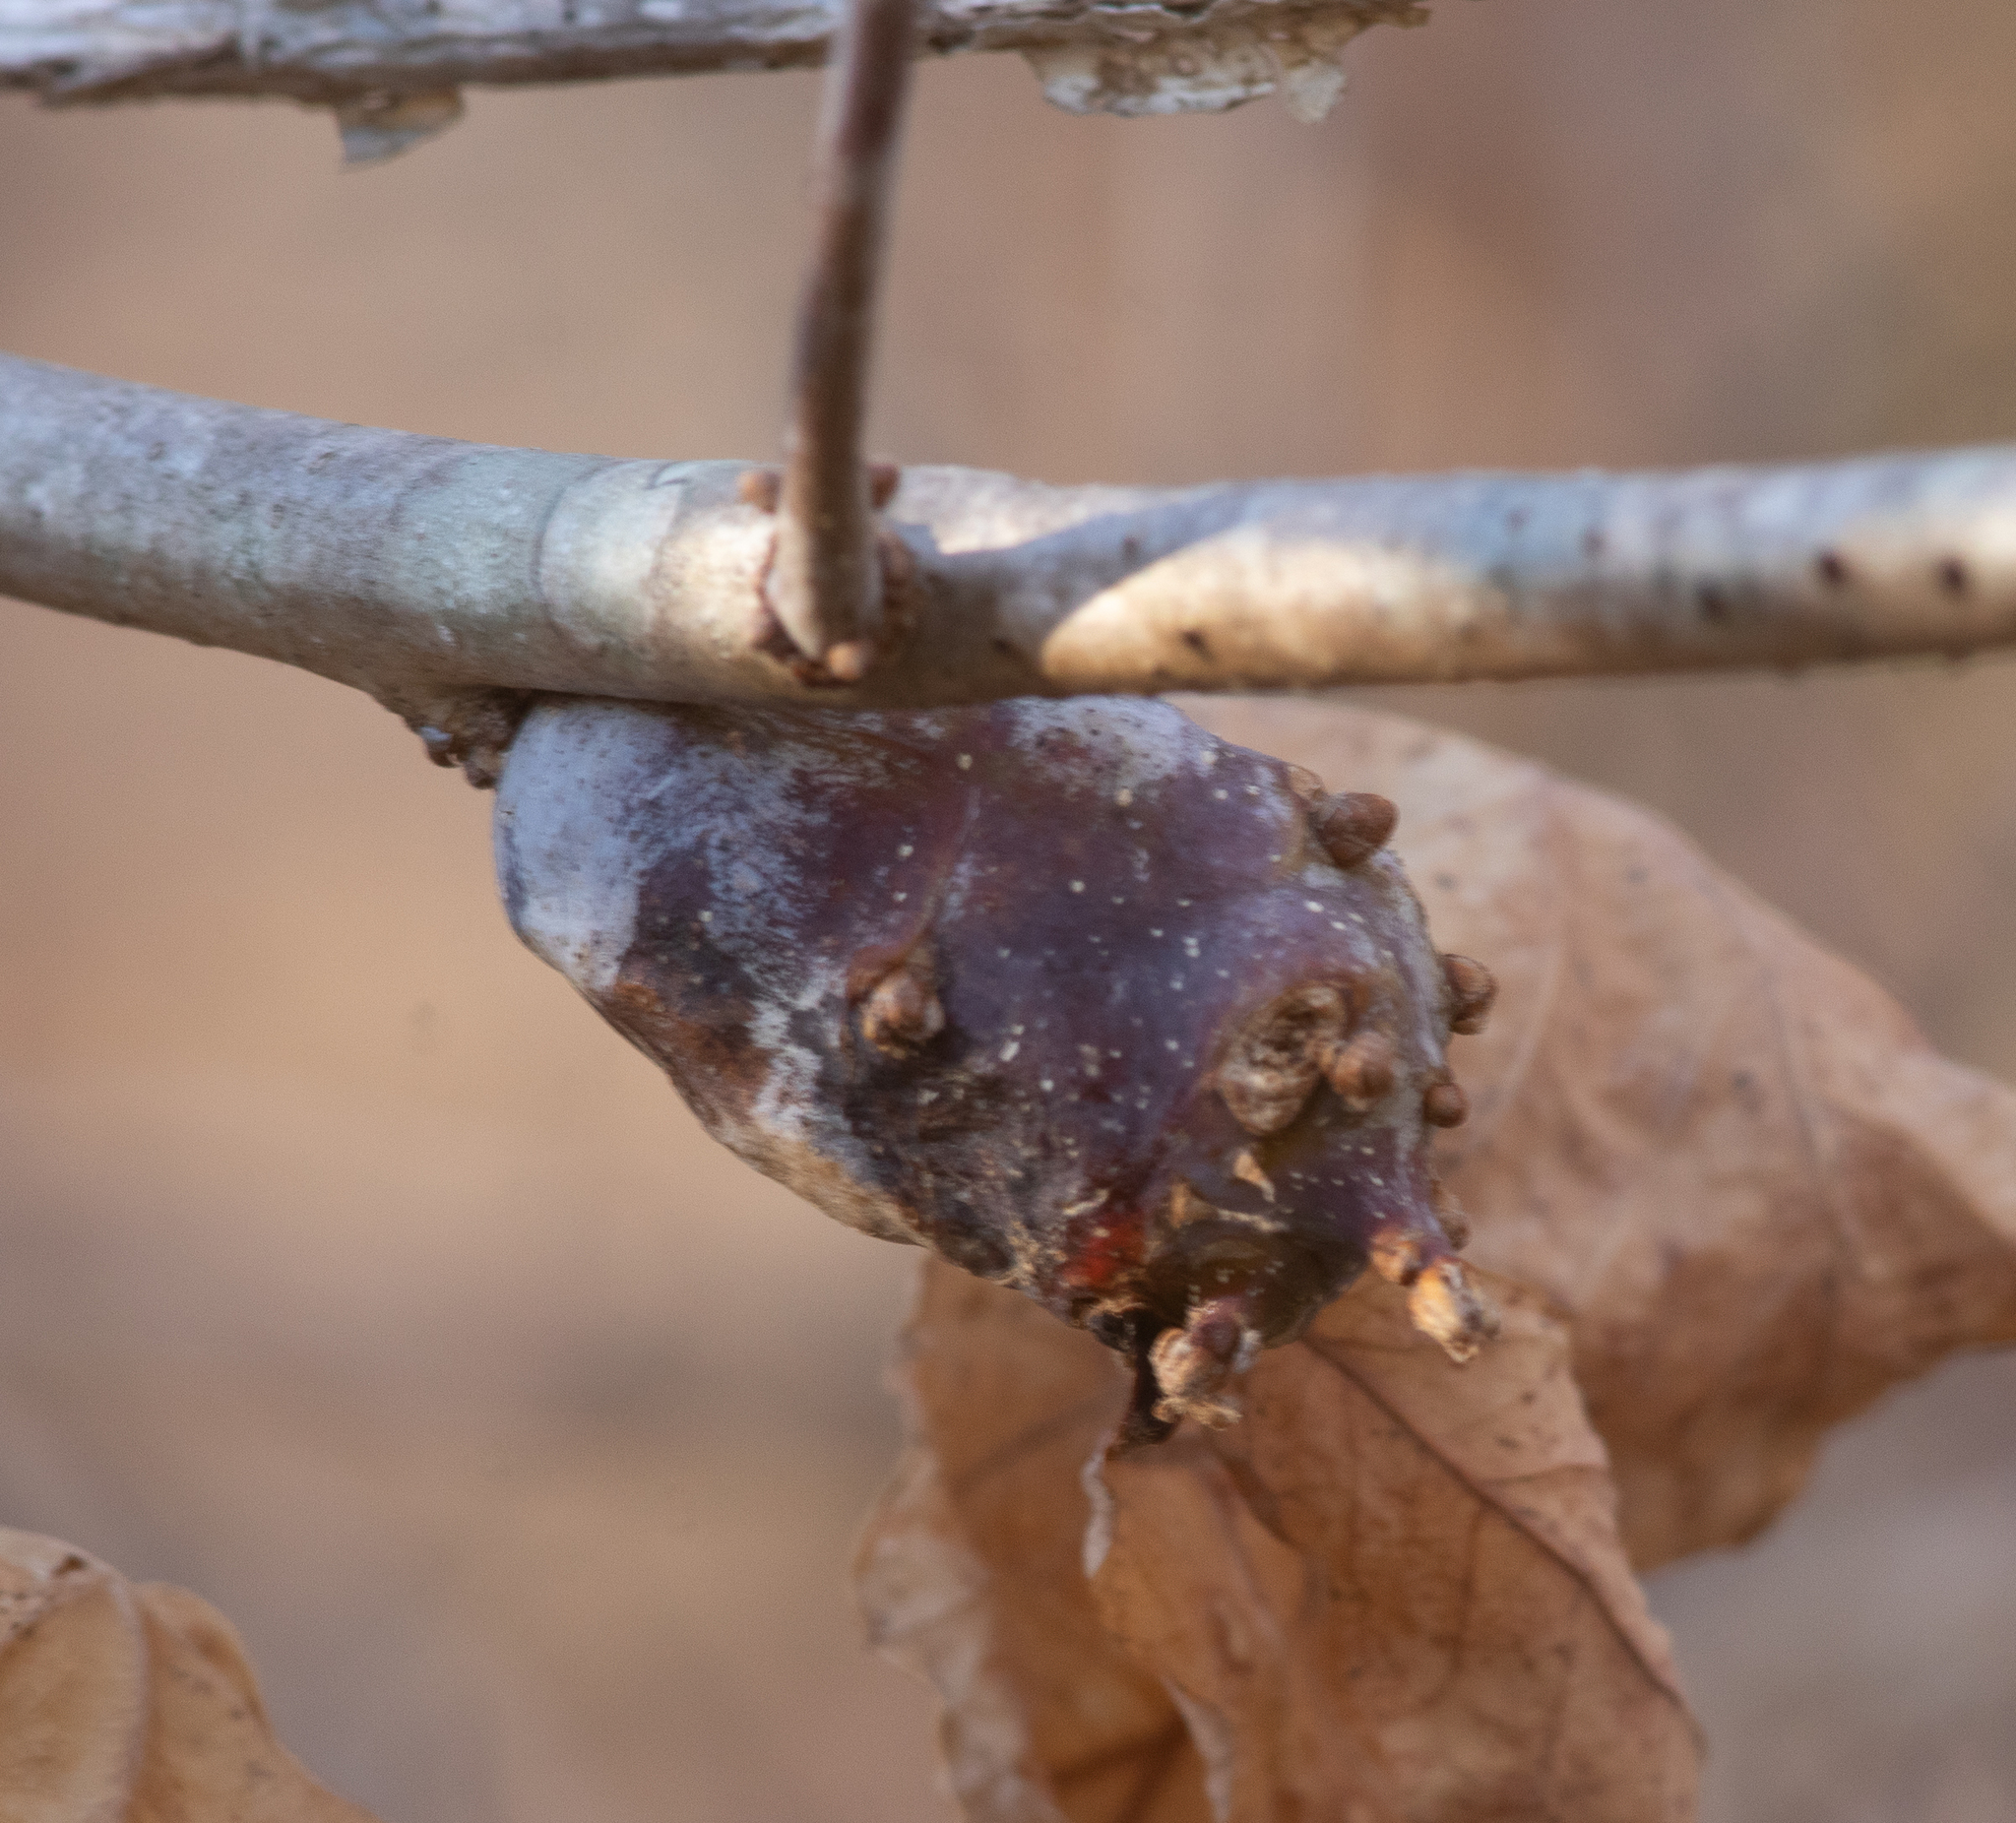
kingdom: Animalia
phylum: Arthropoda
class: Insecta
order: Hymenoptera
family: Cynipidae
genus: Neuroterus
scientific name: Neuroterus quercusbaccarum
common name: Common spangle gall
